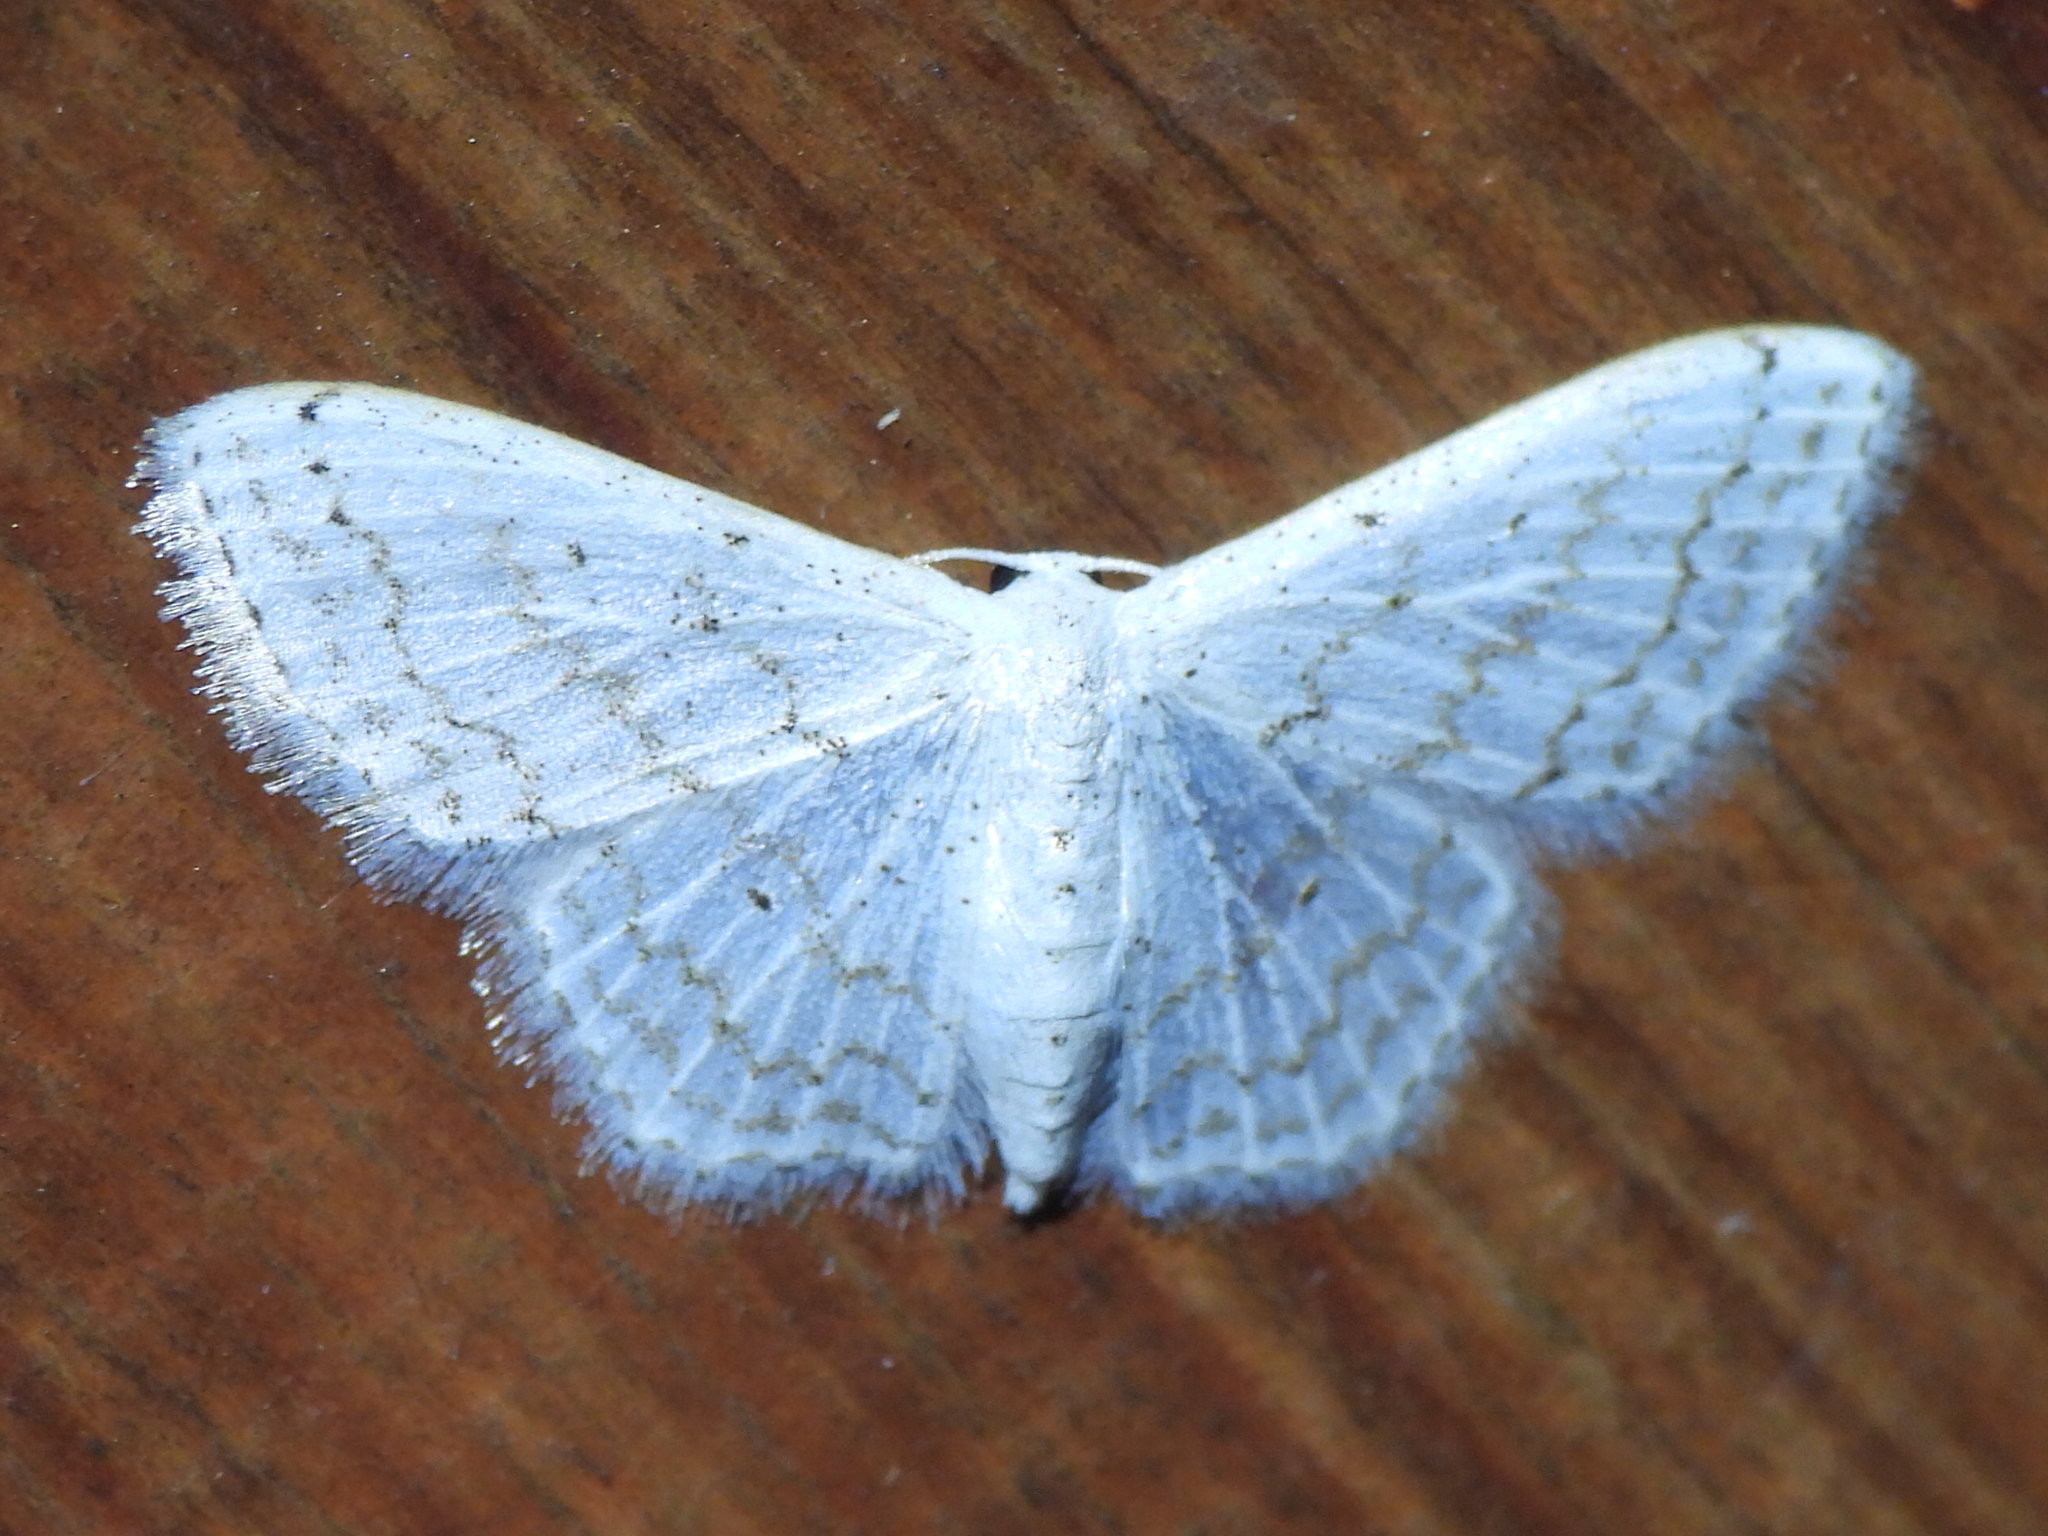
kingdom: Animalia
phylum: Arthropoda
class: Insecta
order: Lepidoptera
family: Geometridae
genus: Idaea
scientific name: Idaea tacturata
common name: Dot-lined wave
